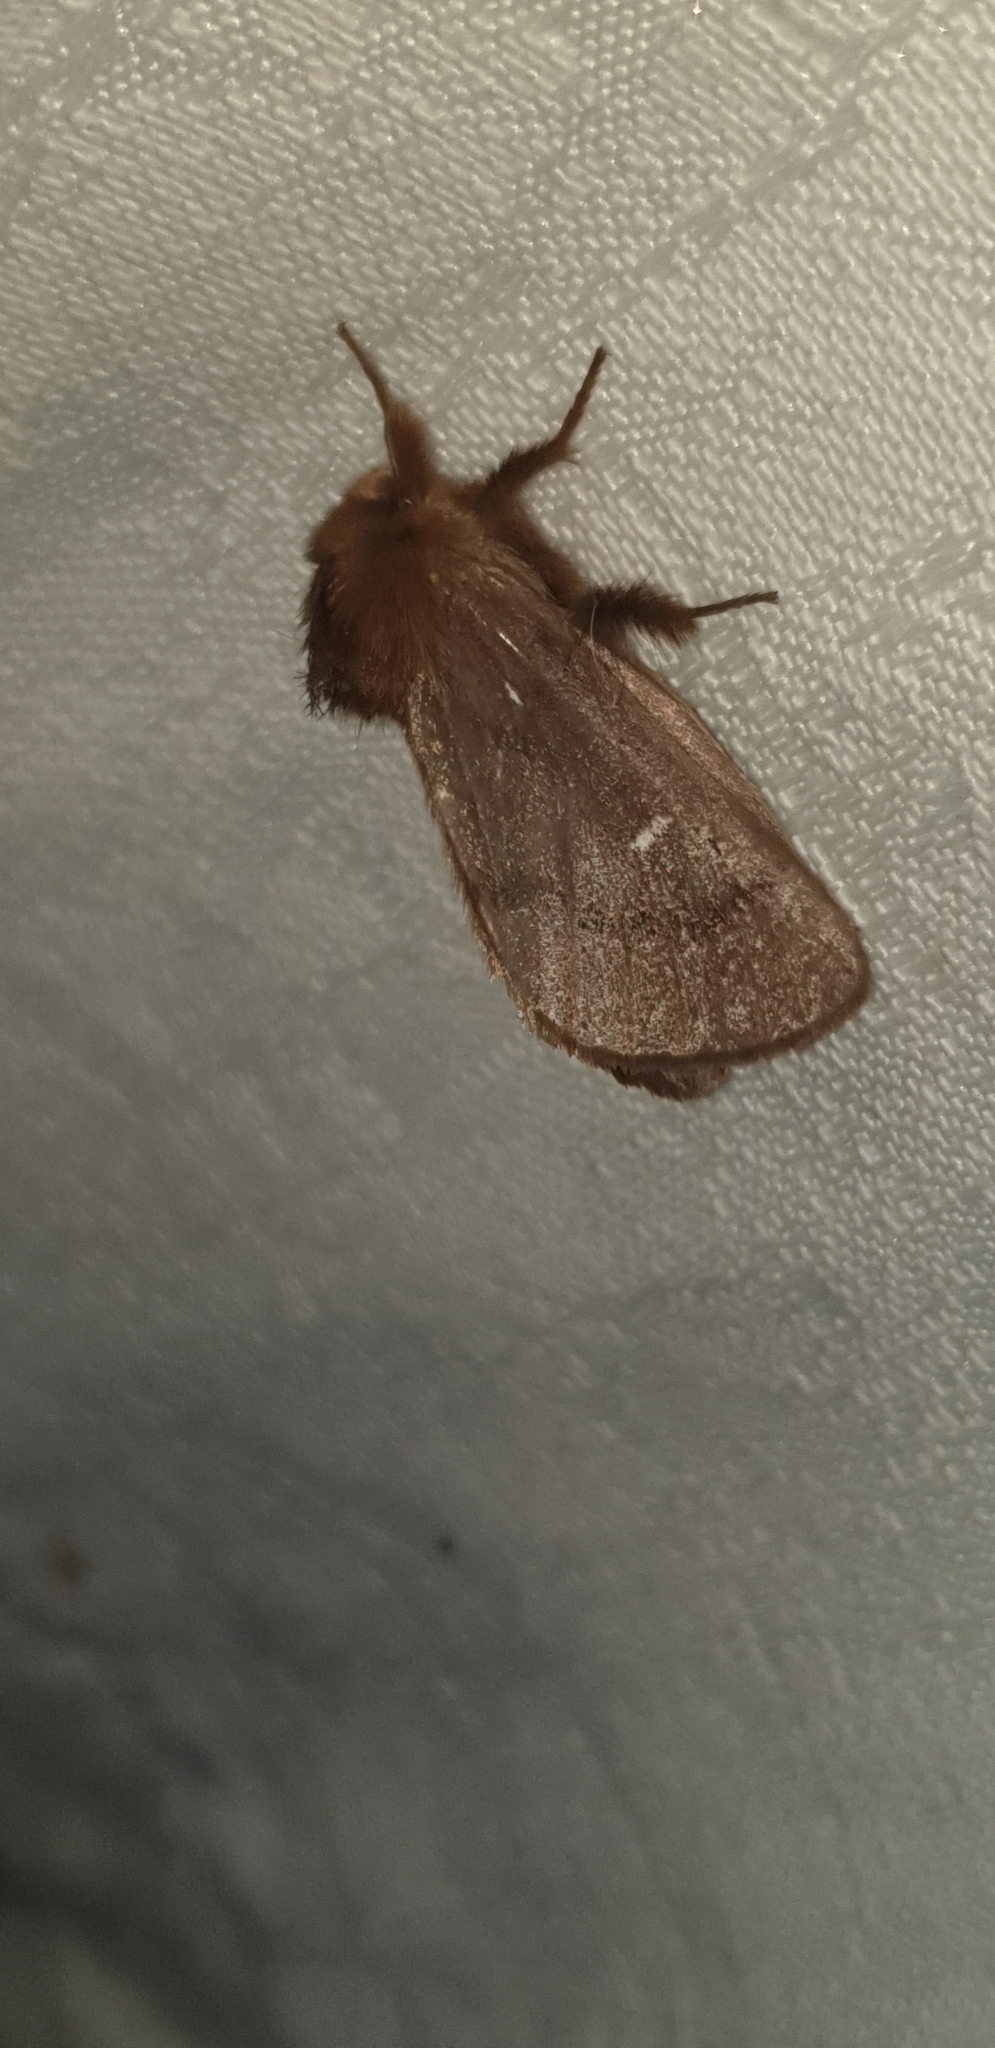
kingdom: Animalia
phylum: Arthropoda
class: Insecta
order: Lepidoptera
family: Notodontidae
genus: Ochrogaster
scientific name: Ochrogaster lunifer
